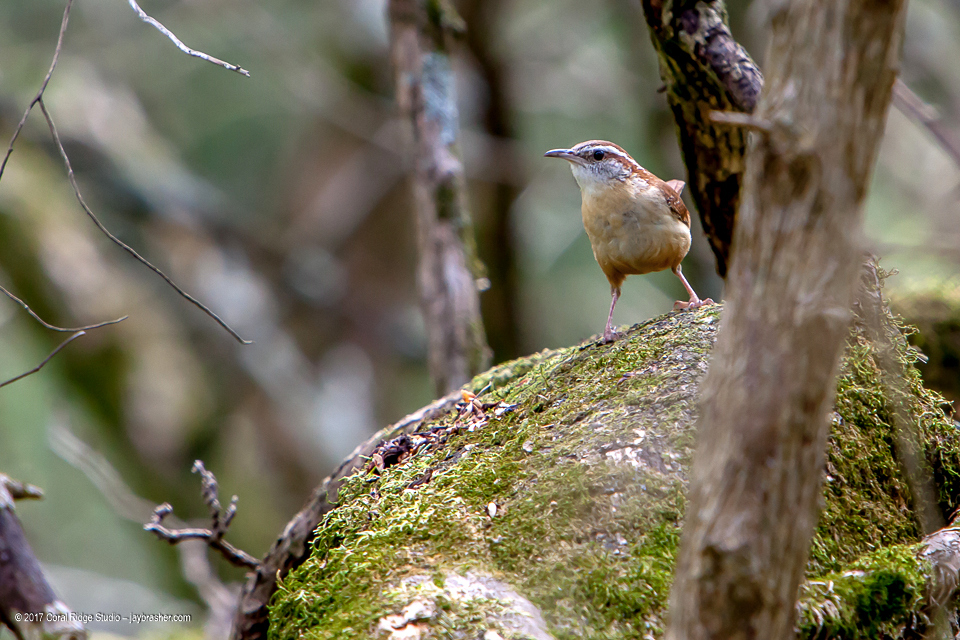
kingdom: Animalia
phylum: Chordata
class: Aves
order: Passeriformes
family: Troglodytidae
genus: Thryothorus
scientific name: Thryothorus ludovicianus
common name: Carolina wren
